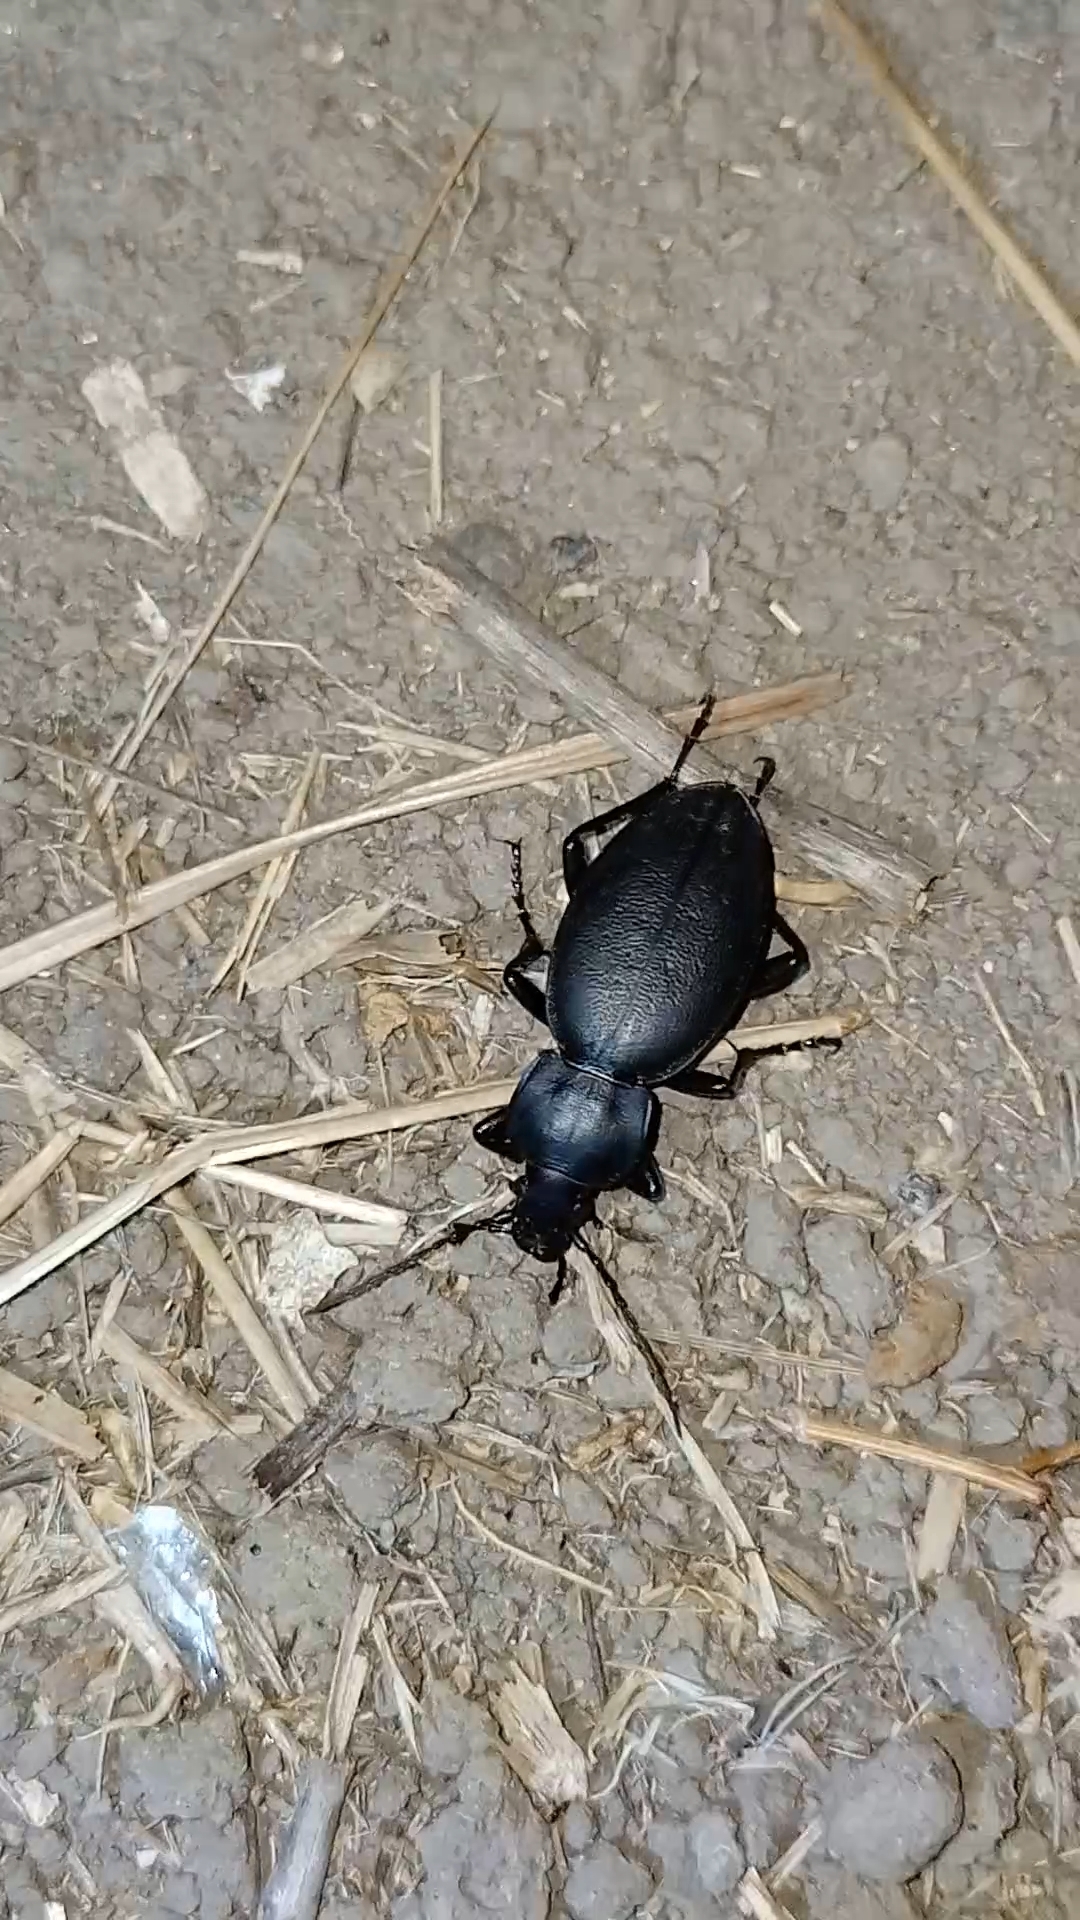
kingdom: Animalia
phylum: Arthropoda
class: Insecta
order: Coleoptera
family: Carabidae
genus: Carabus
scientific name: Carabus coriaceus
